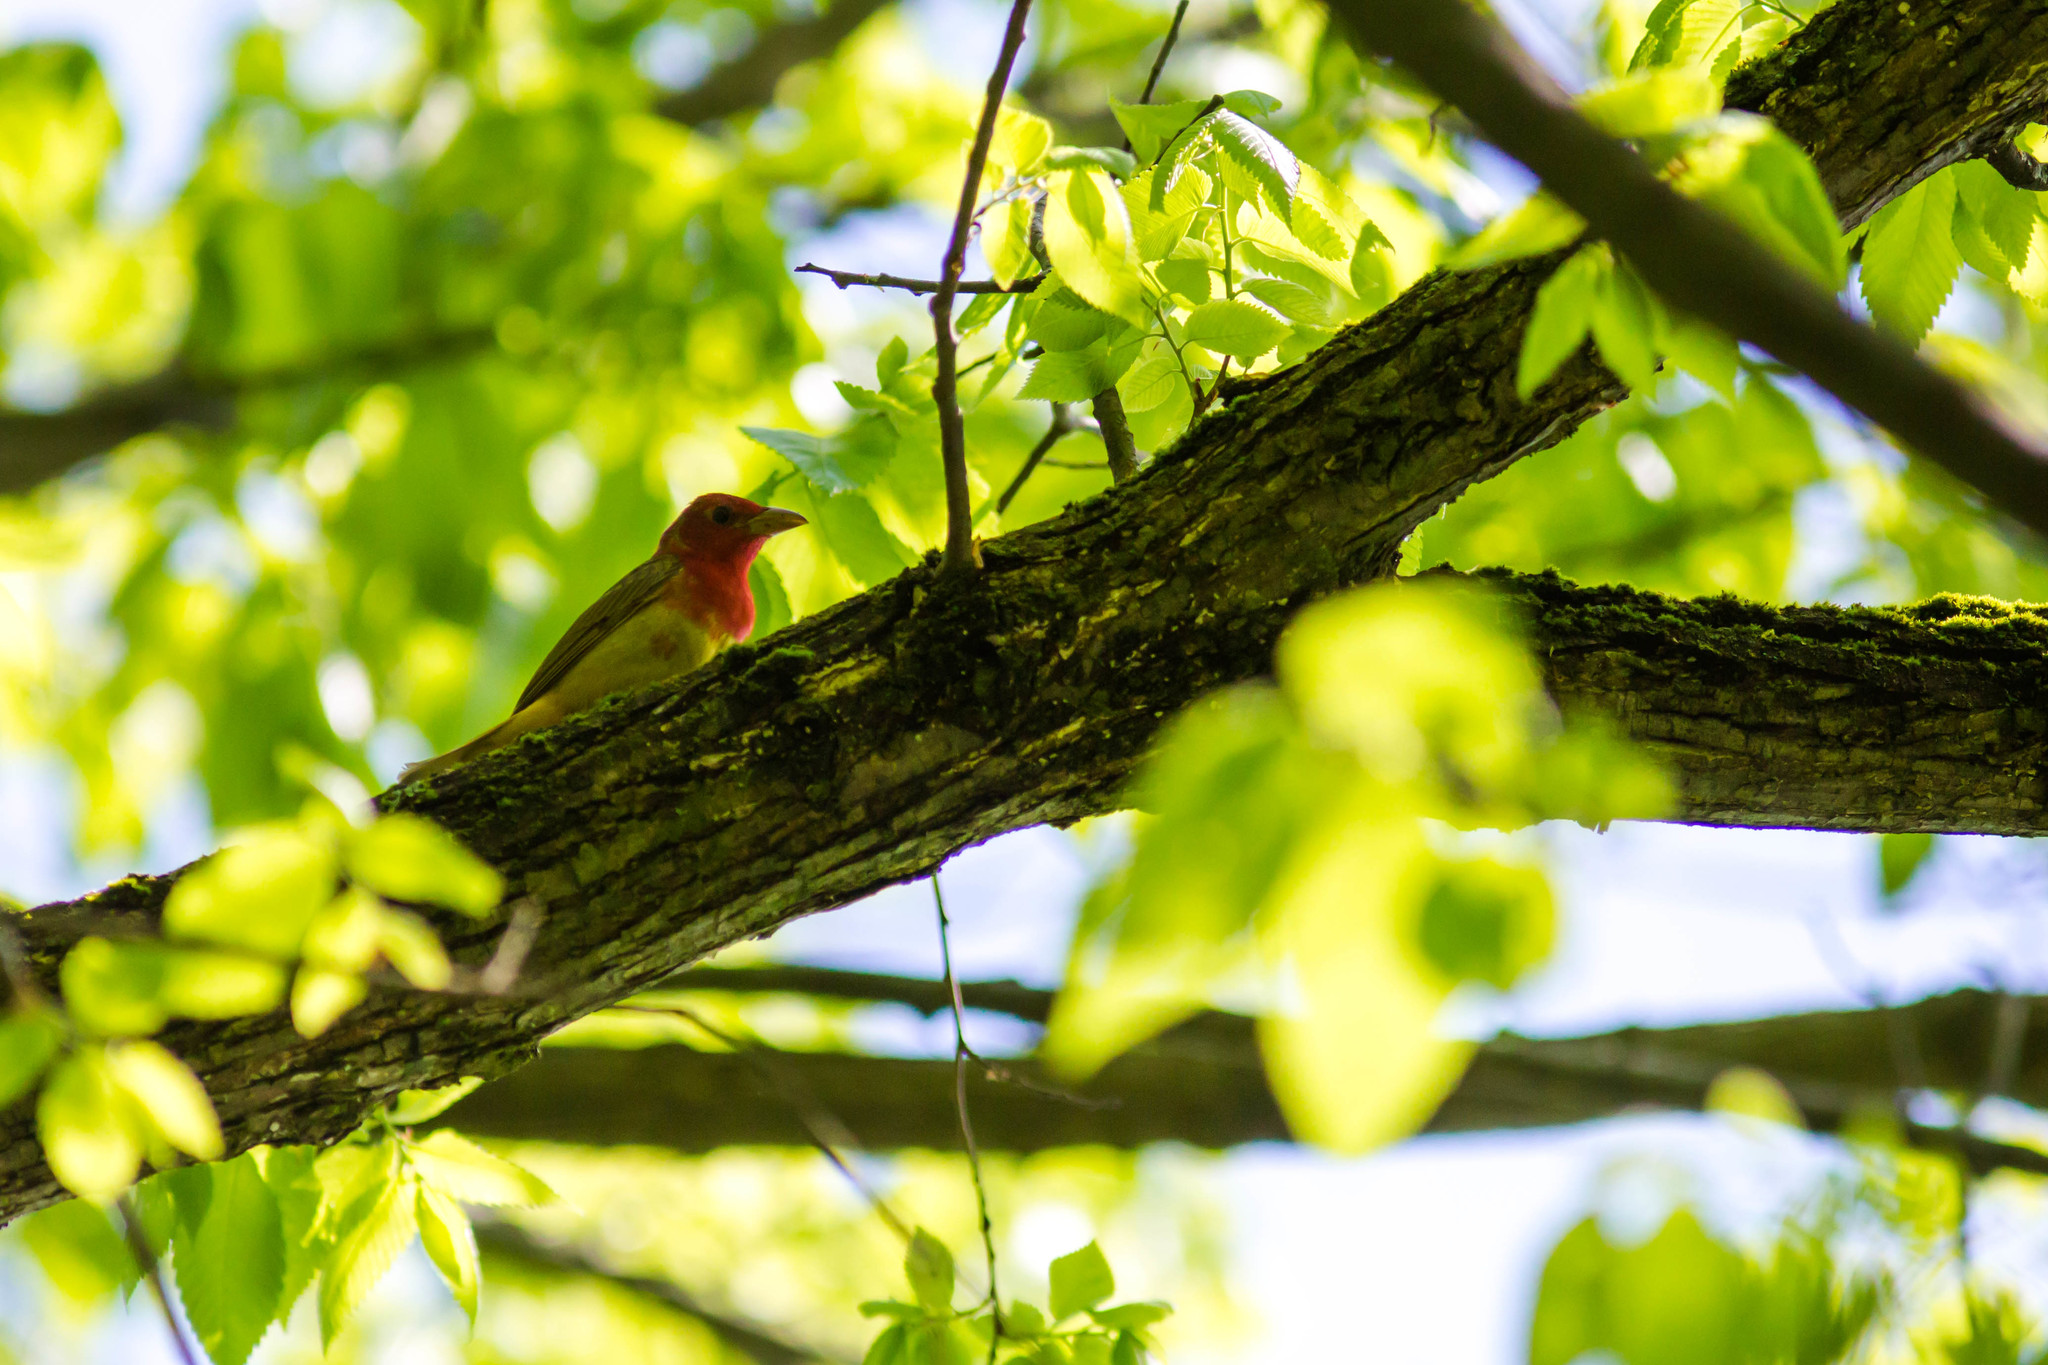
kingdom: Animalia
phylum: Chordata
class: Aves
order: Passeriformes
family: Cardinalidae
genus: Piranga
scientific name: Piranga rubra
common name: Summer tanager
